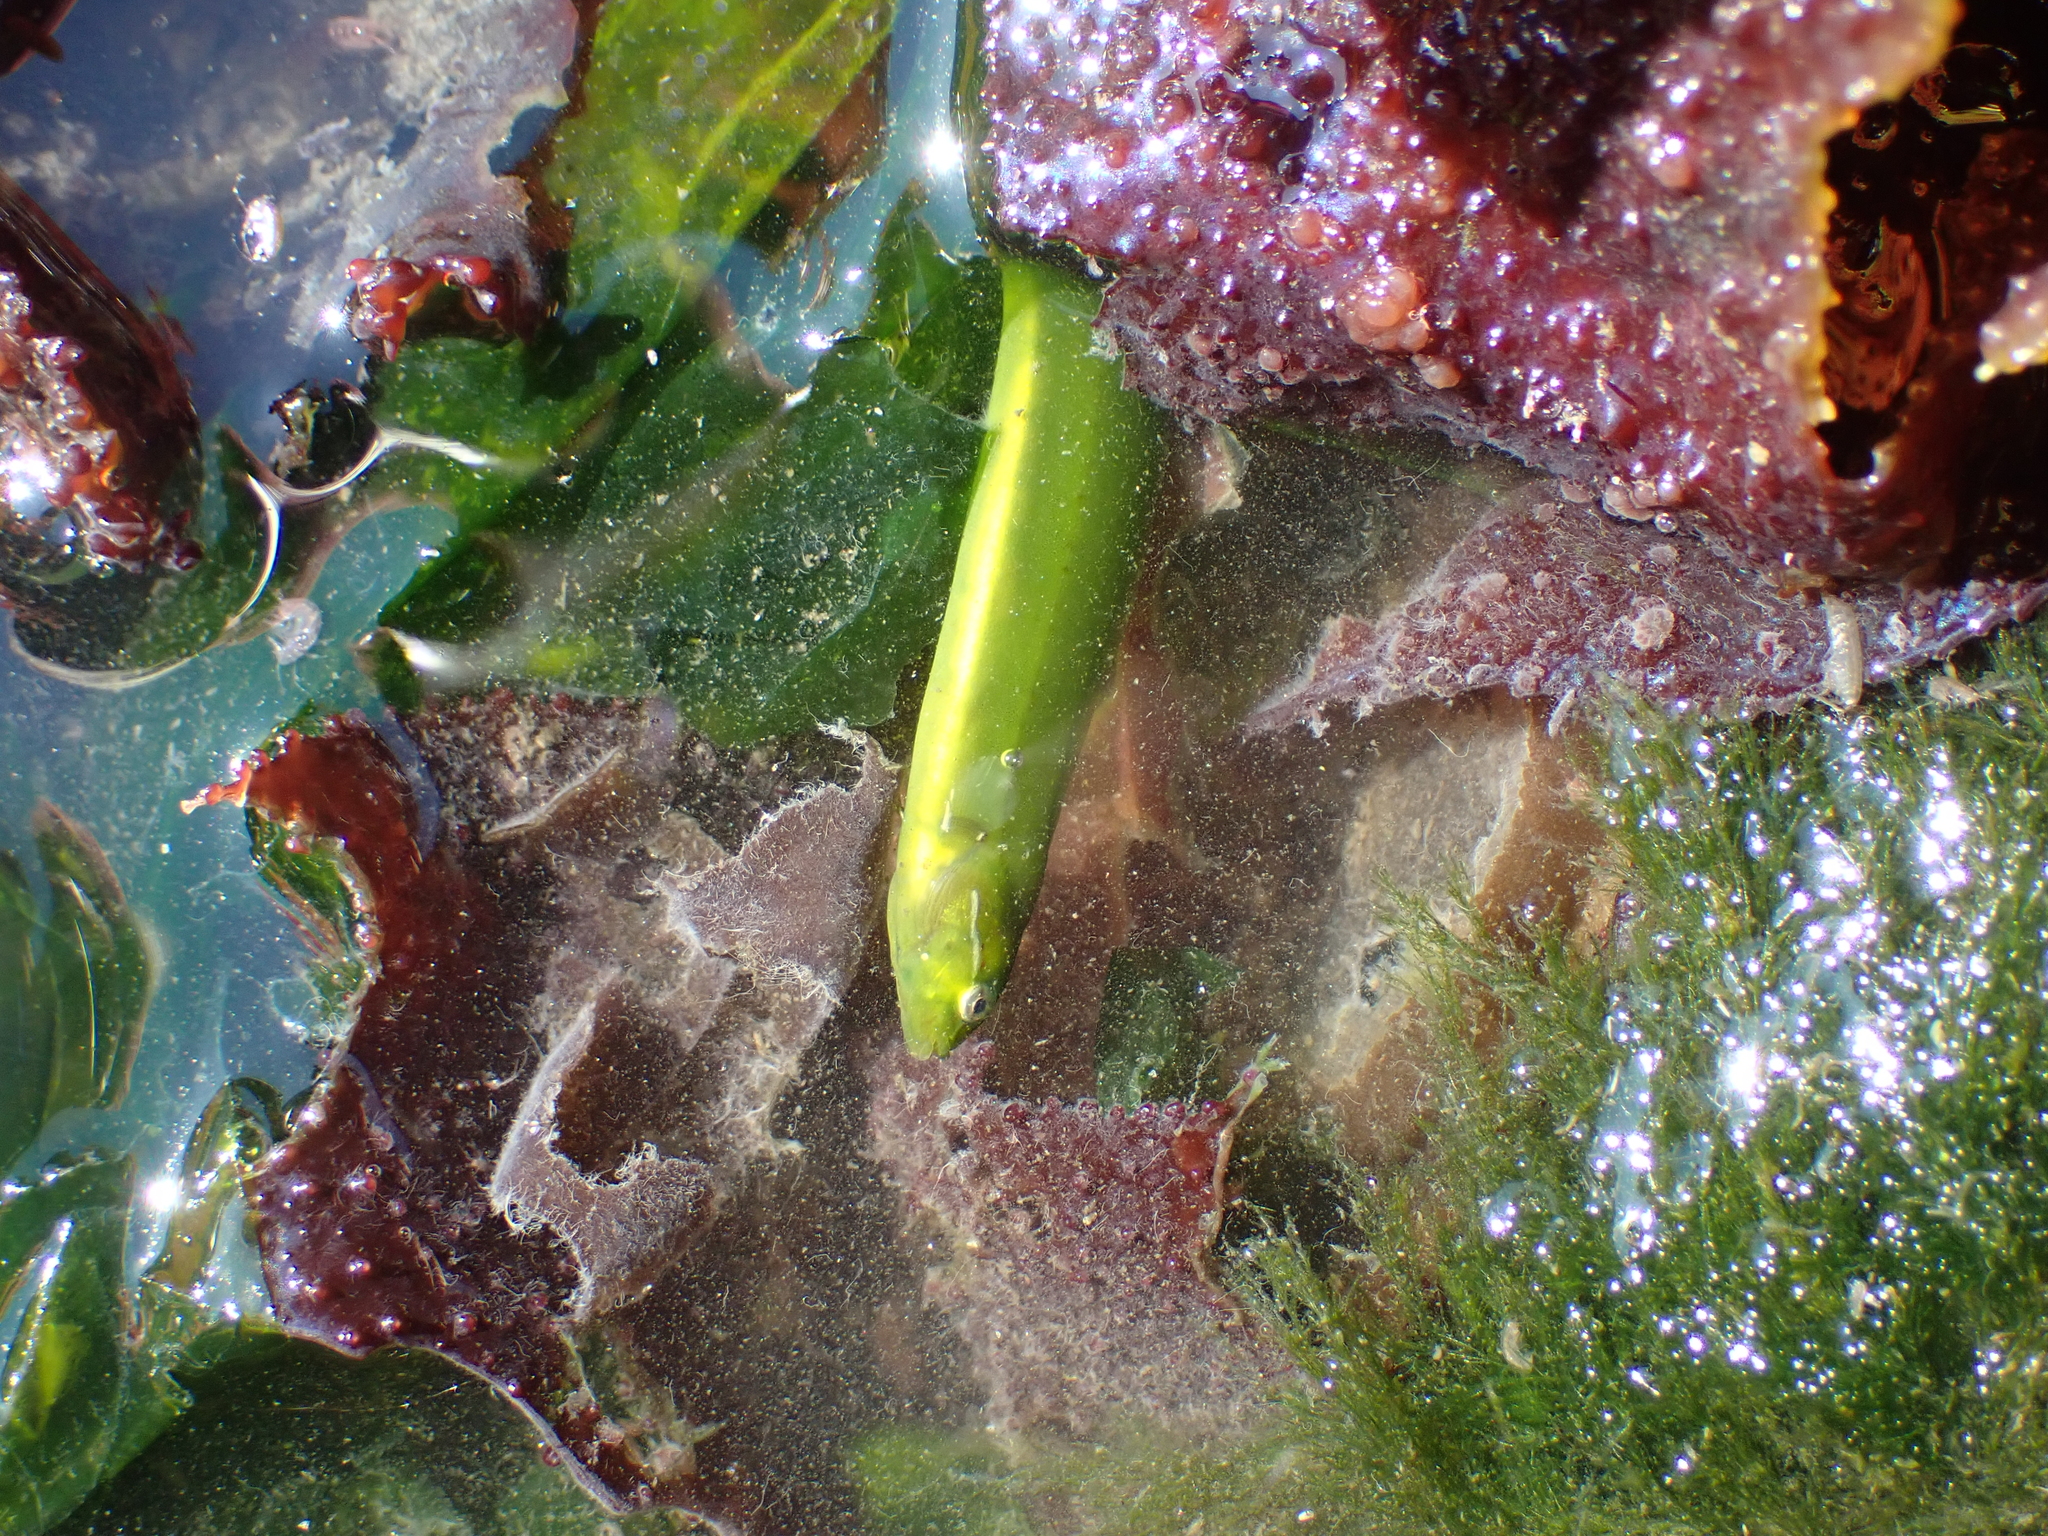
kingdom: Animalia
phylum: Chordata
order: Perciformes
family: Pholidae
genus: Apodichthys
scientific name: Apodichthys flavidus
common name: Penpoint gunnel
